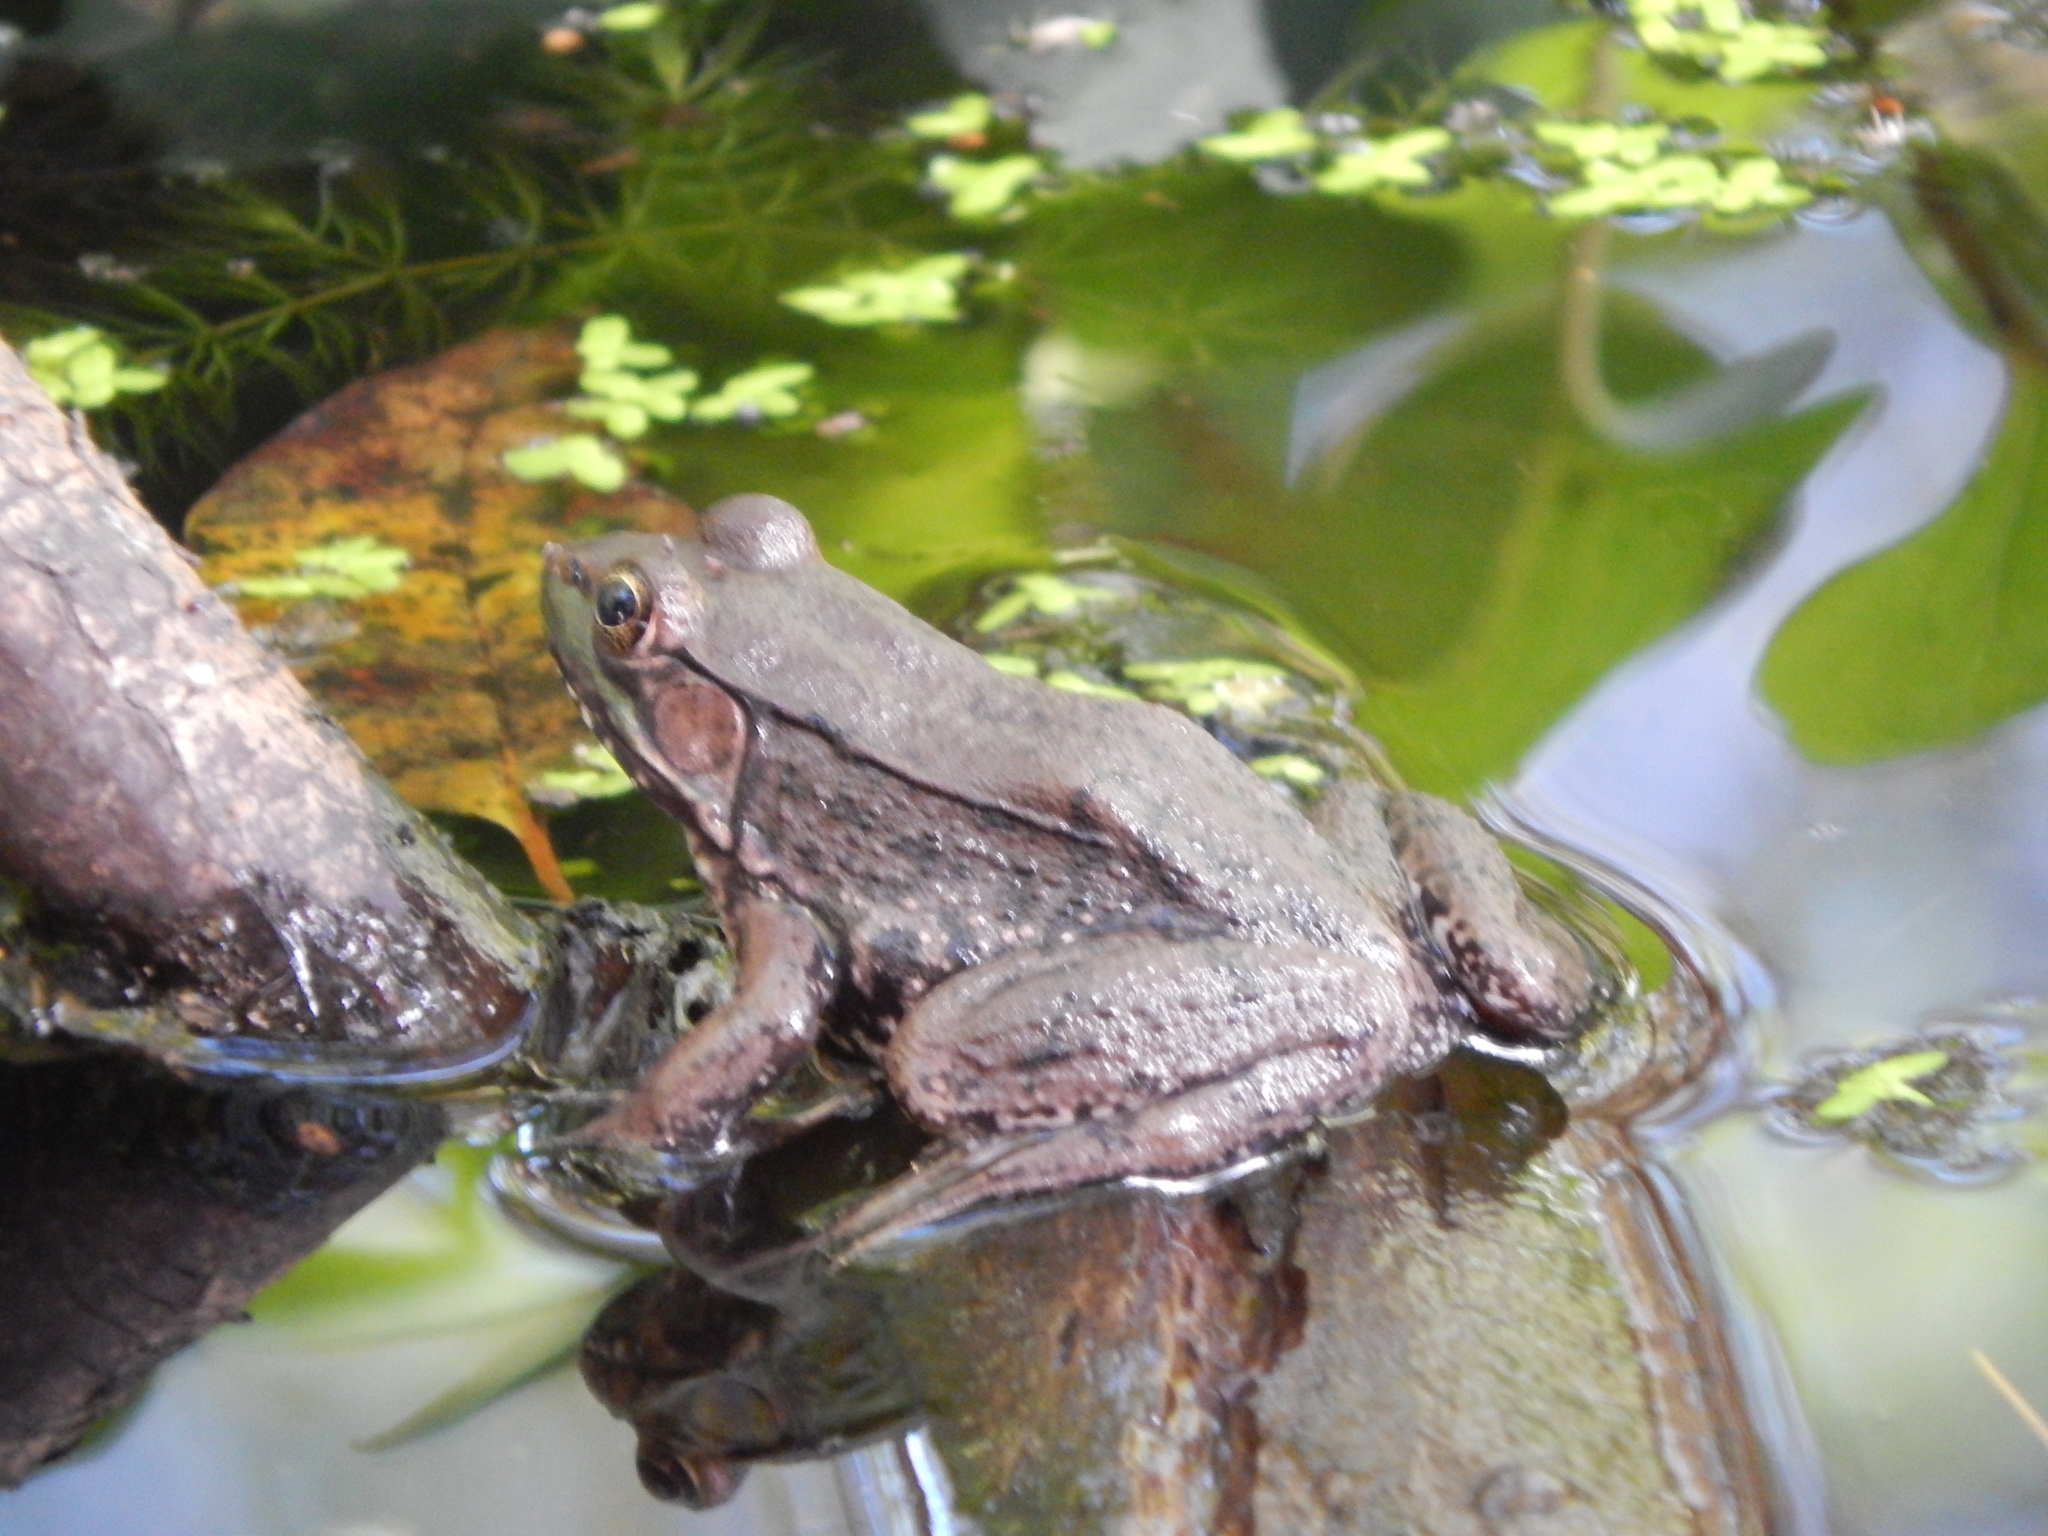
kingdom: Animalia
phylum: Chordata
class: Amphibia
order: Anura
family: Ranidae
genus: Lithobates
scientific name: Lithobates clamitans
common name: Green frog
